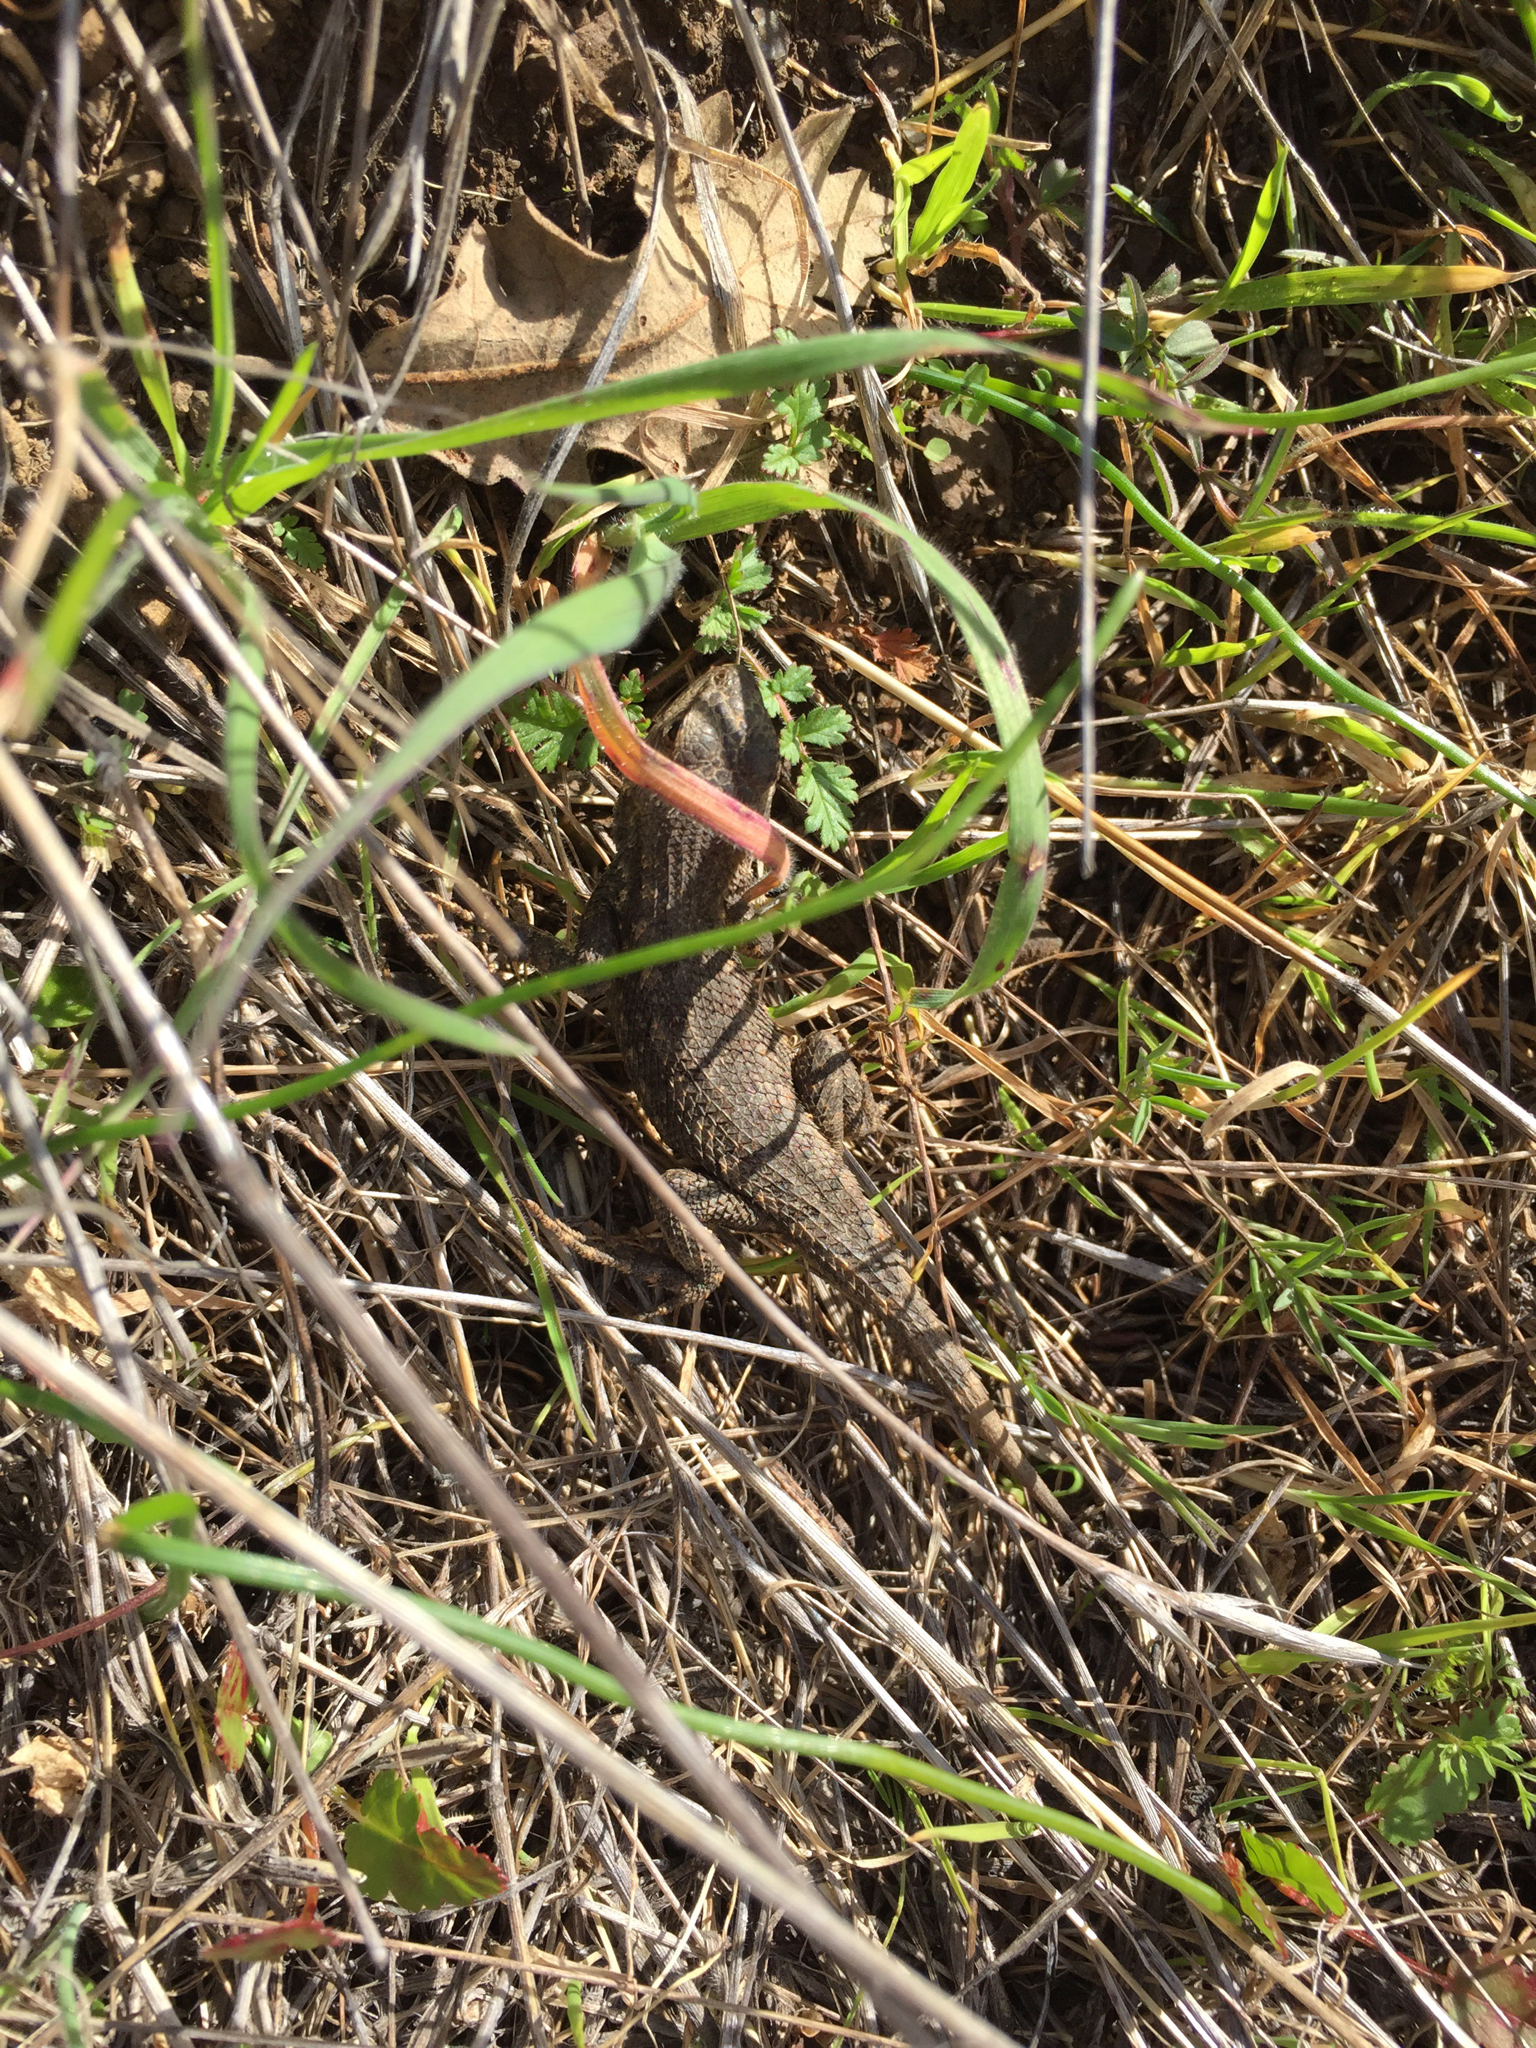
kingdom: Animalia
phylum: Chordata
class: Squamata
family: Phrynosomatidae
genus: Sceloporus
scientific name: Sceloporus occidentalis
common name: Western fence lizard
